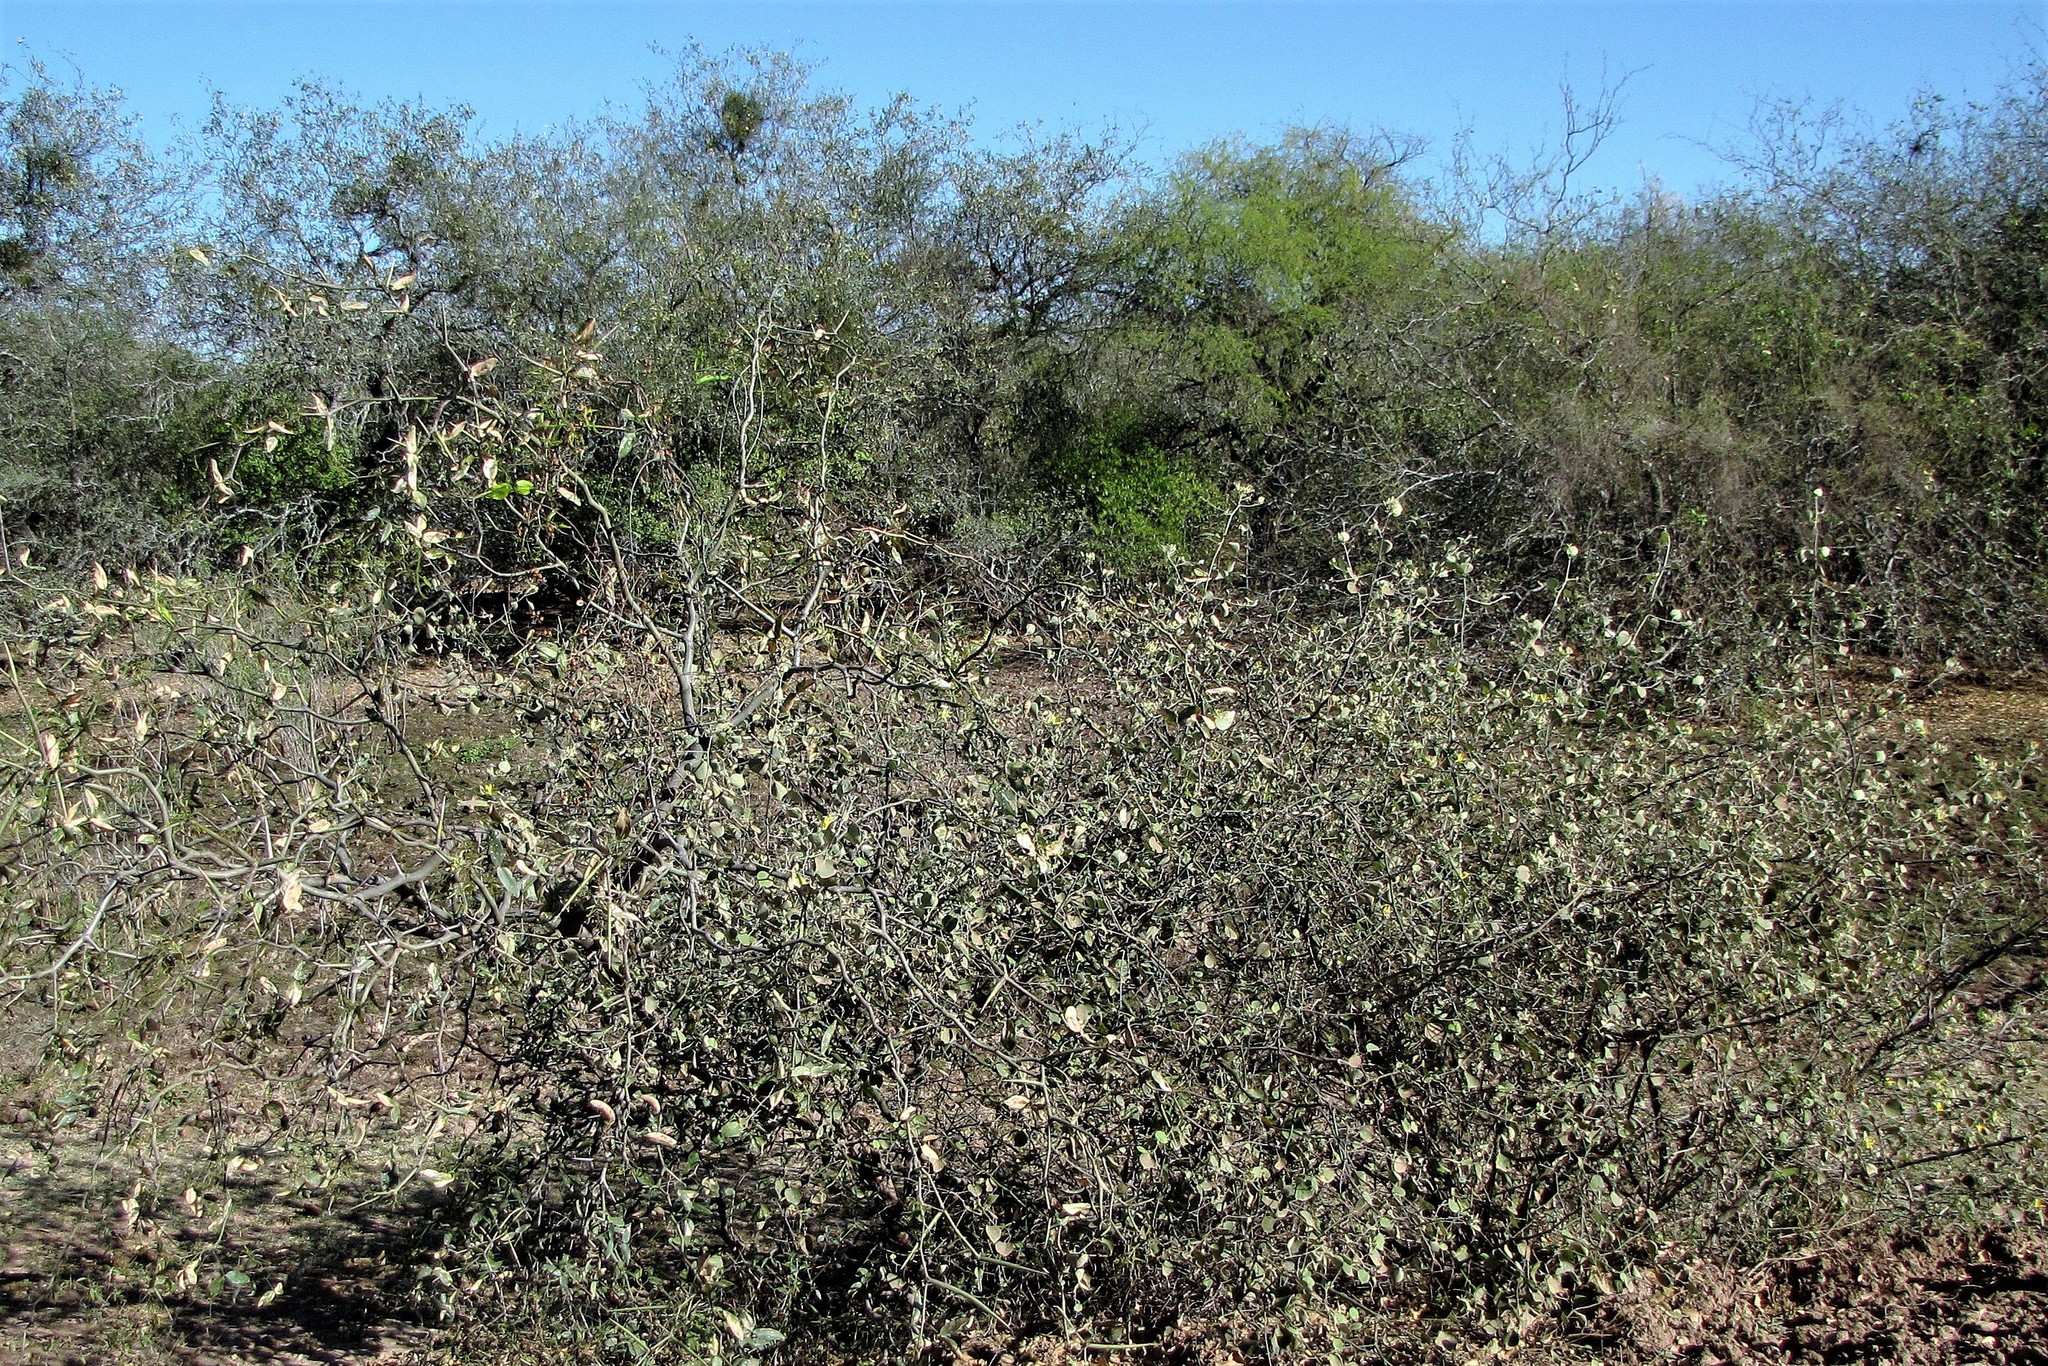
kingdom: Plantae
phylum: Tracheophyta
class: Magnoliopsida
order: Fabales
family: Fabaceae
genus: Prosopis
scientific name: Prosopis ruscifolia
